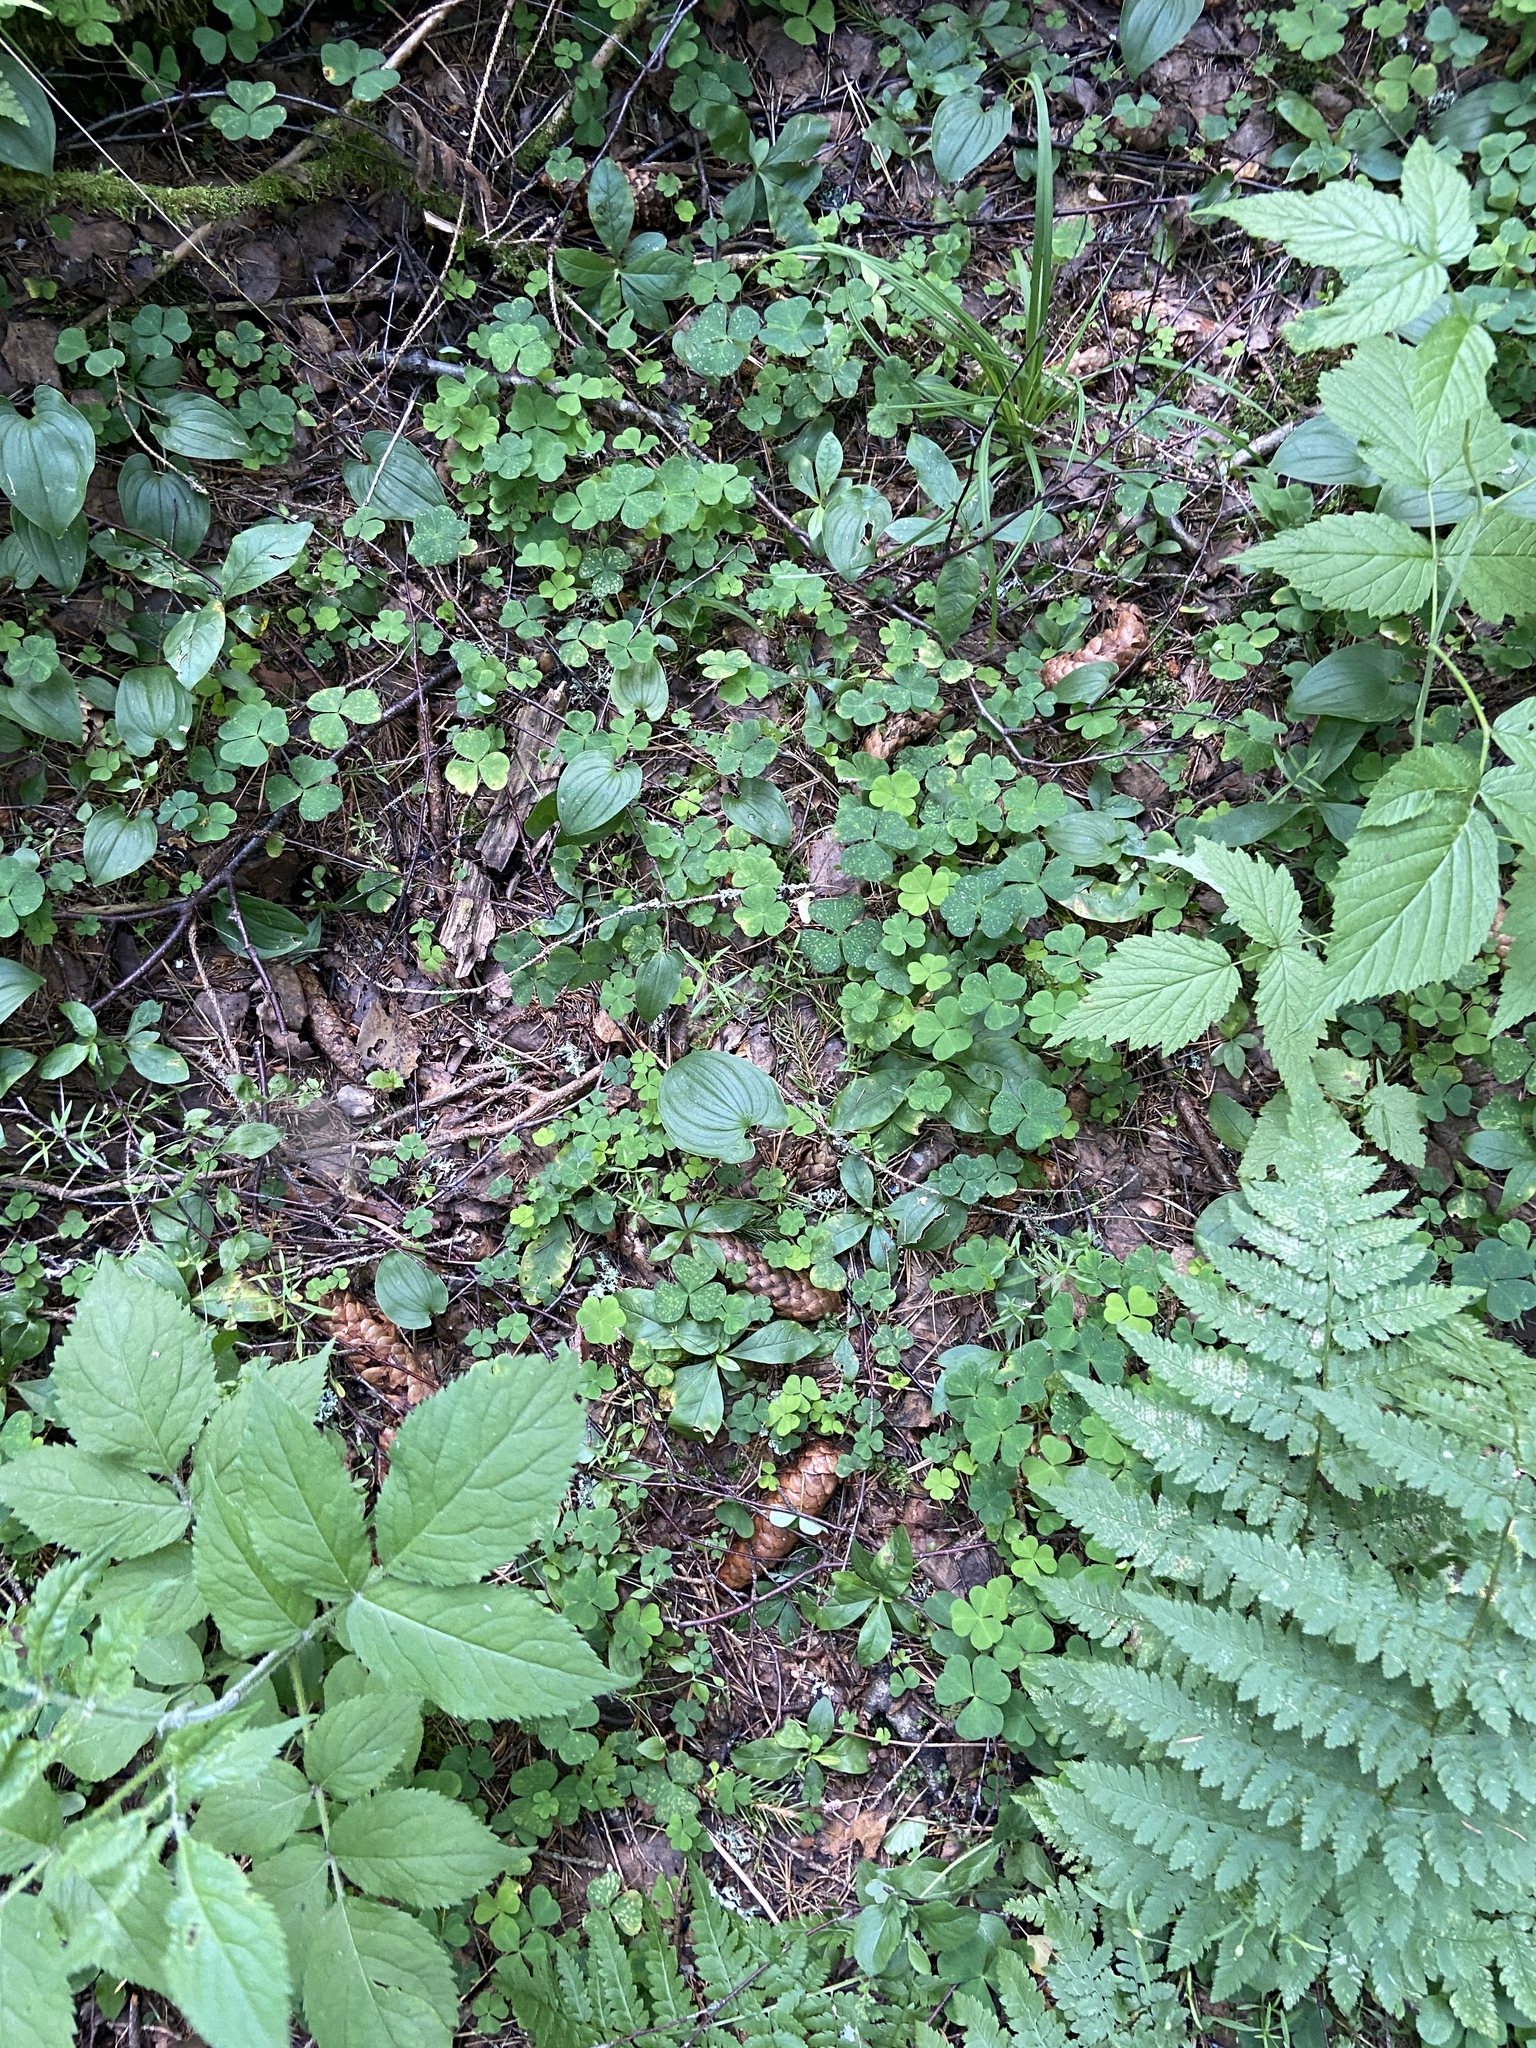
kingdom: Plantae
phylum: Tracheophyta
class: Magnoliopsida
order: Oxalidales
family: Oxalidaceae
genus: Oxalis
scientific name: Oxalis acetosella
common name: Wood-sorrel
